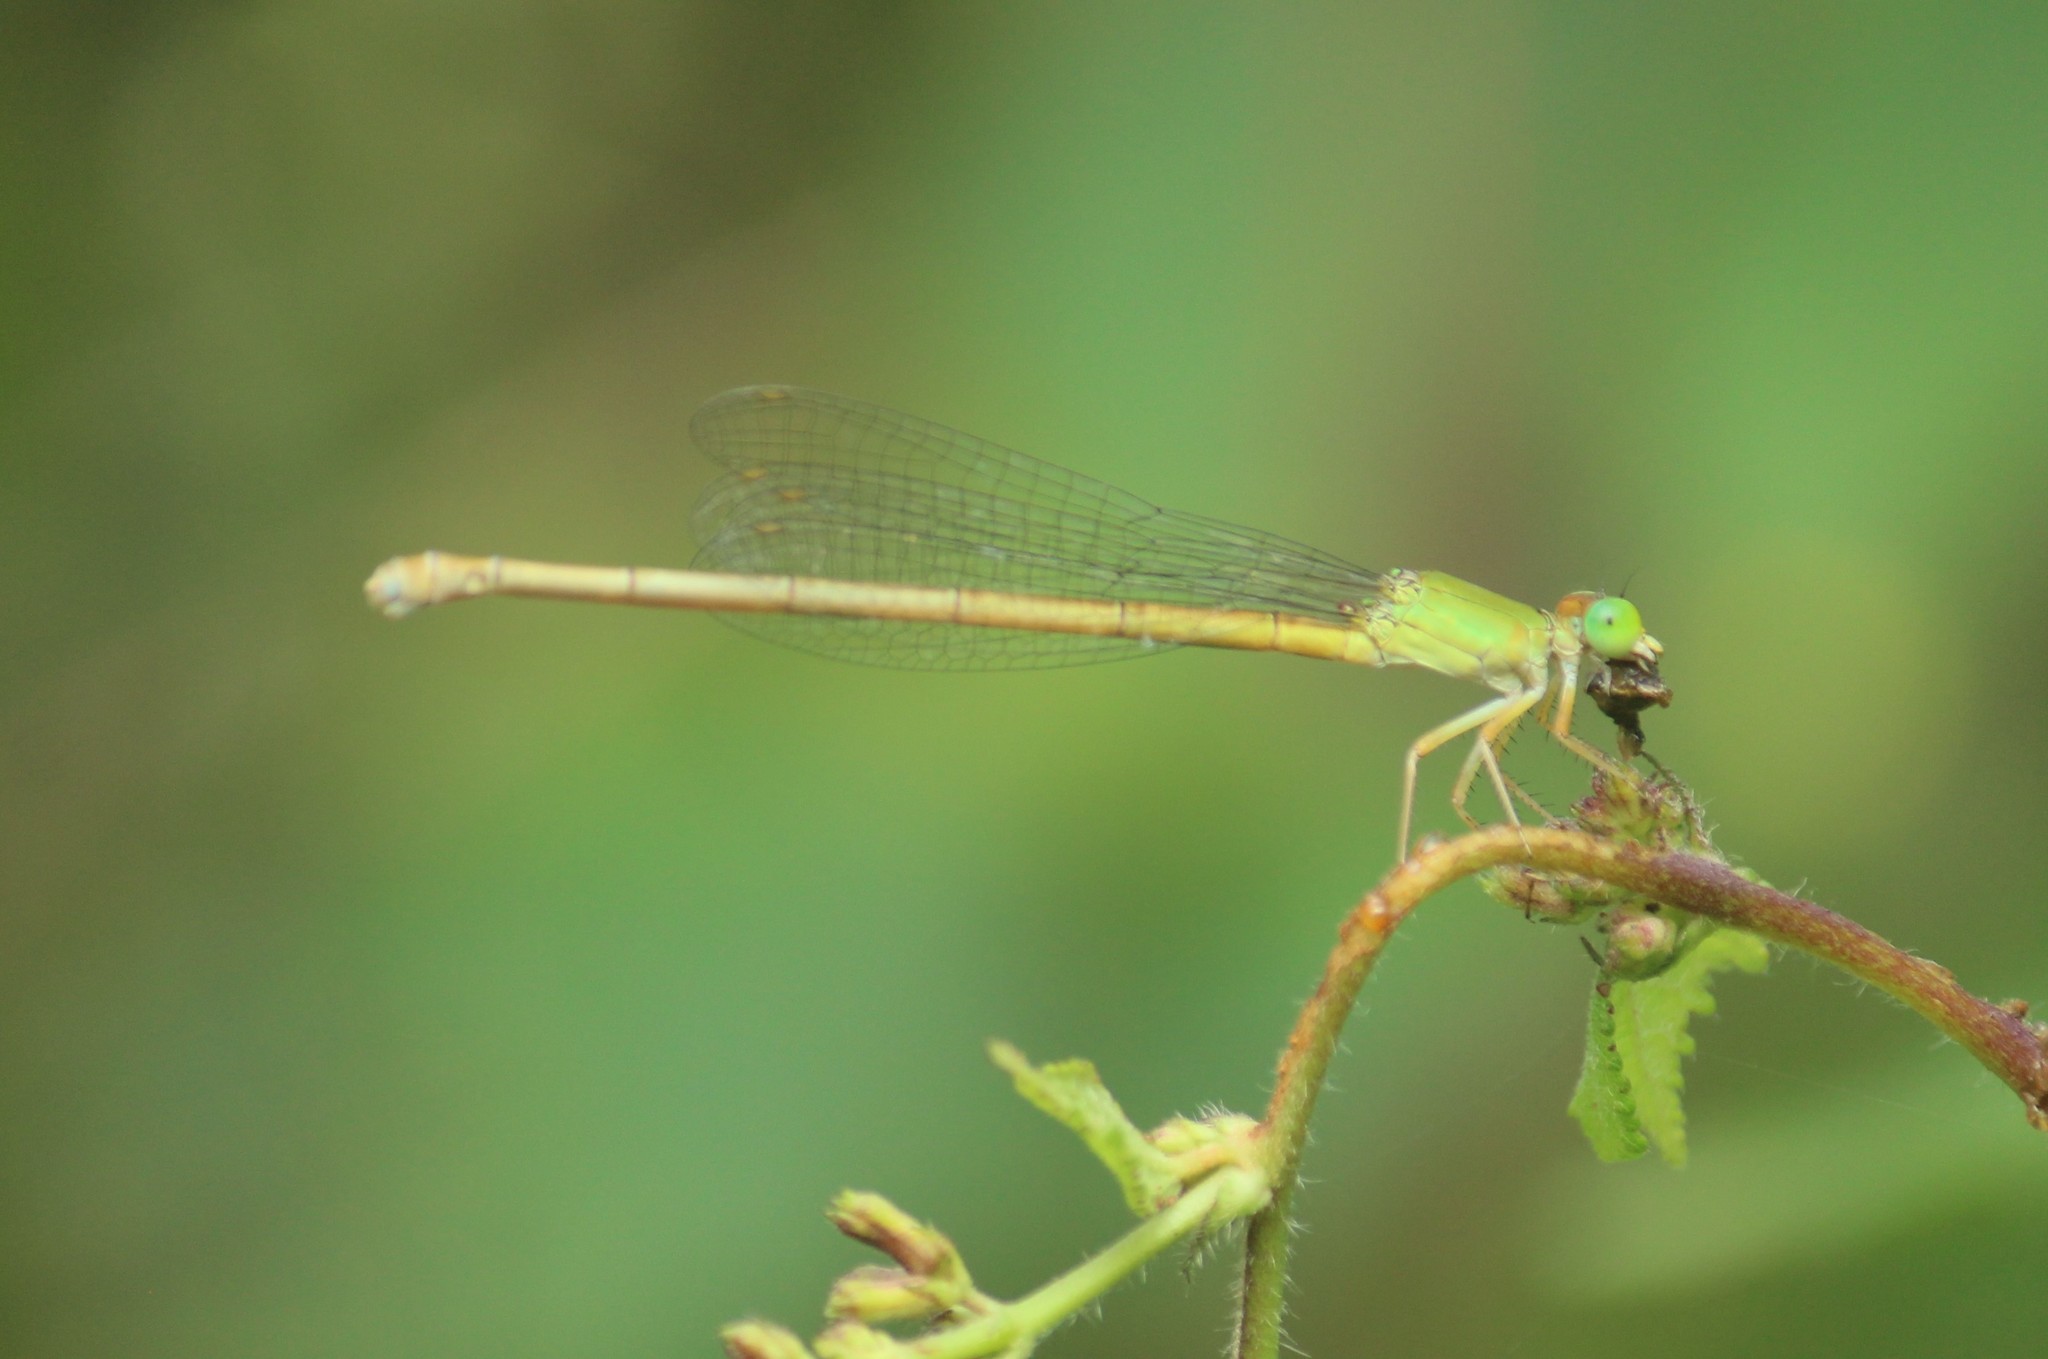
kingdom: Animalia
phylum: Arthropoda
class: Insecta
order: Odonata
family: Coenagrionidae
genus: Ceriagrion
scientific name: Ceriagrion coromandelianum
